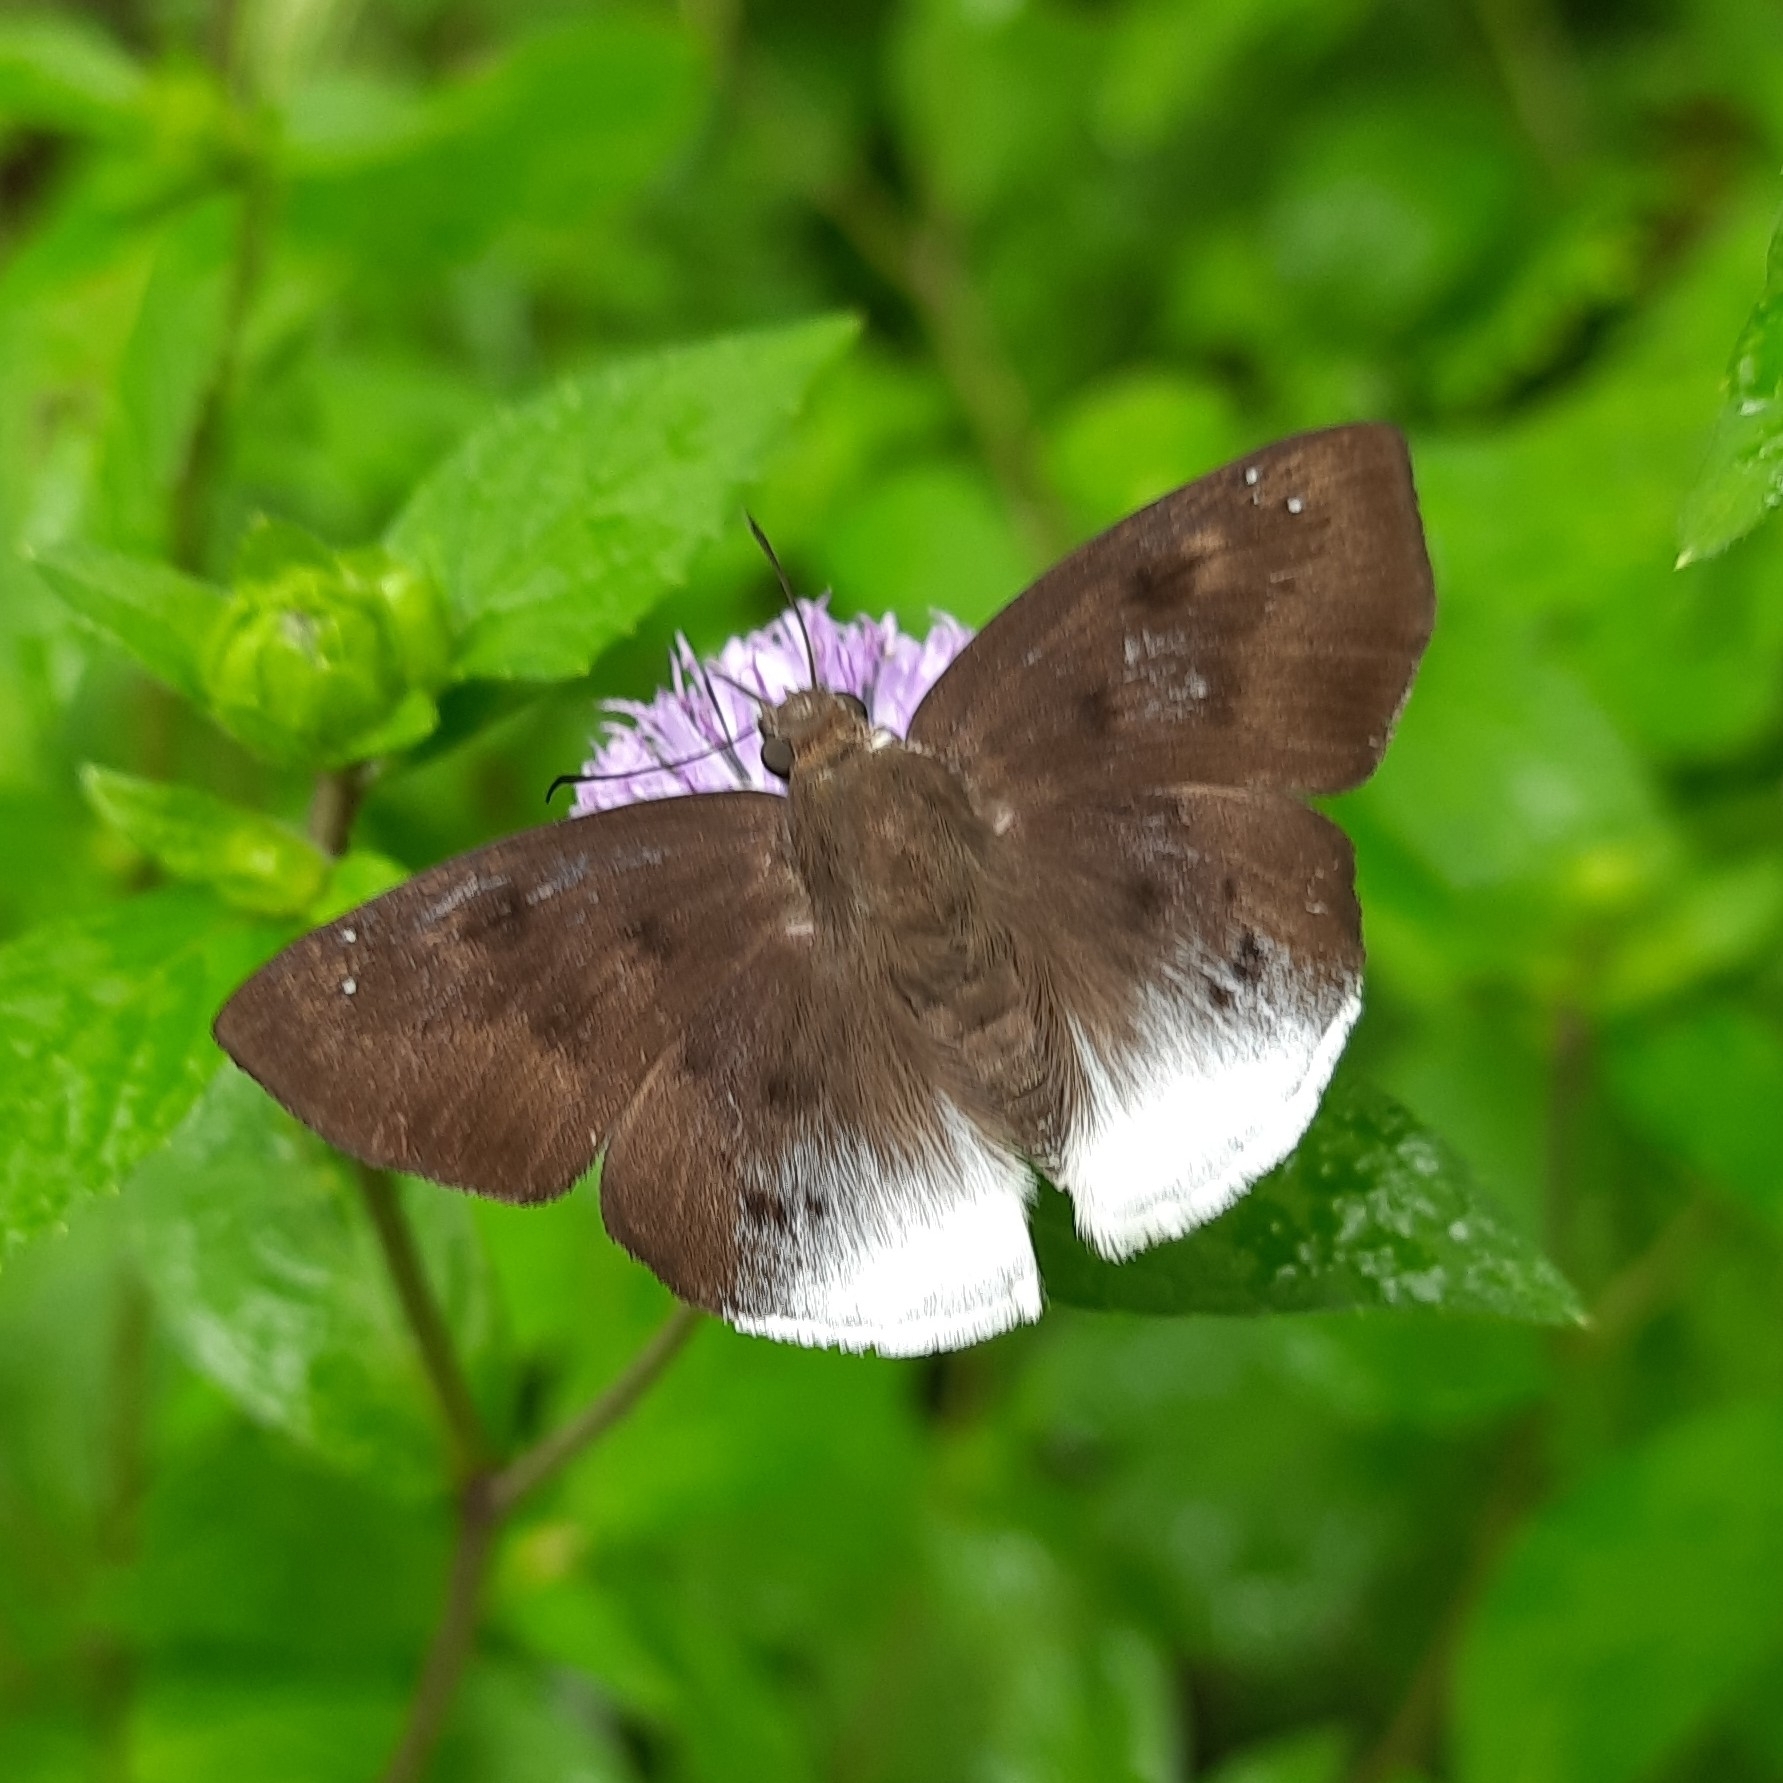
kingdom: Animalia
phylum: Arthropoda
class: Insecta
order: Lepidoptera
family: Hesperiidae
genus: Tagiades
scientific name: Tagiades gana
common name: Suffused snow flat
